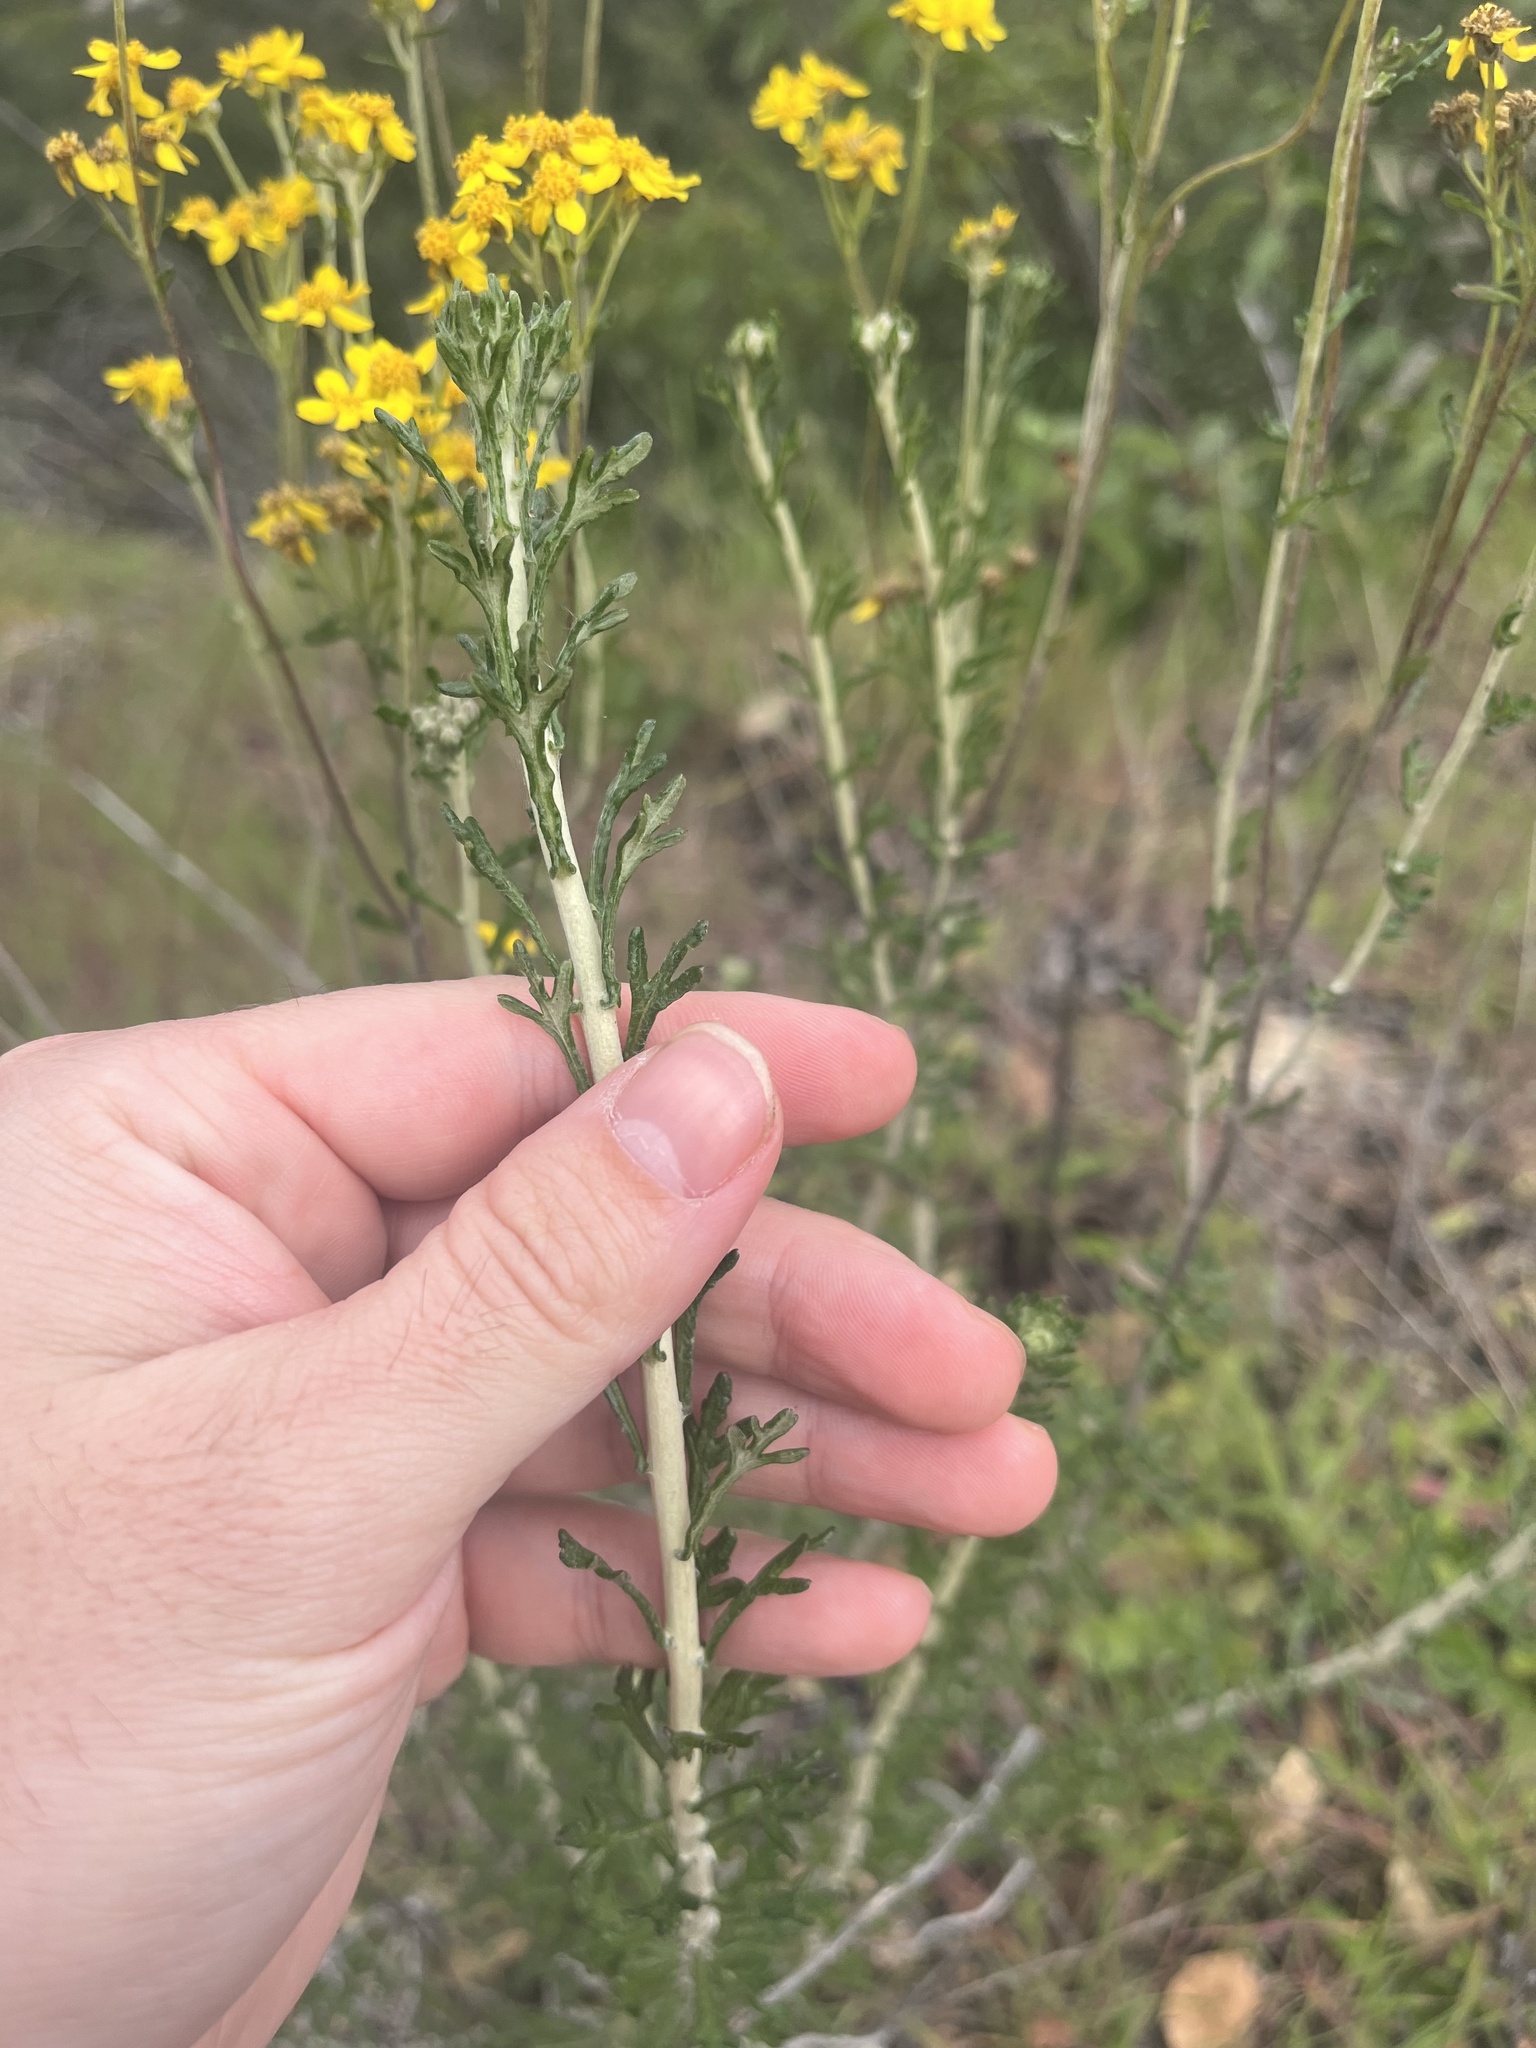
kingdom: Plantae
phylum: Tracheophyta
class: Magnoliopsida
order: Asterales
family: Asteraceae
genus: Eriophyllum
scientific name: Eriophyllum confertiflorum
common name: Golden-yarrow
